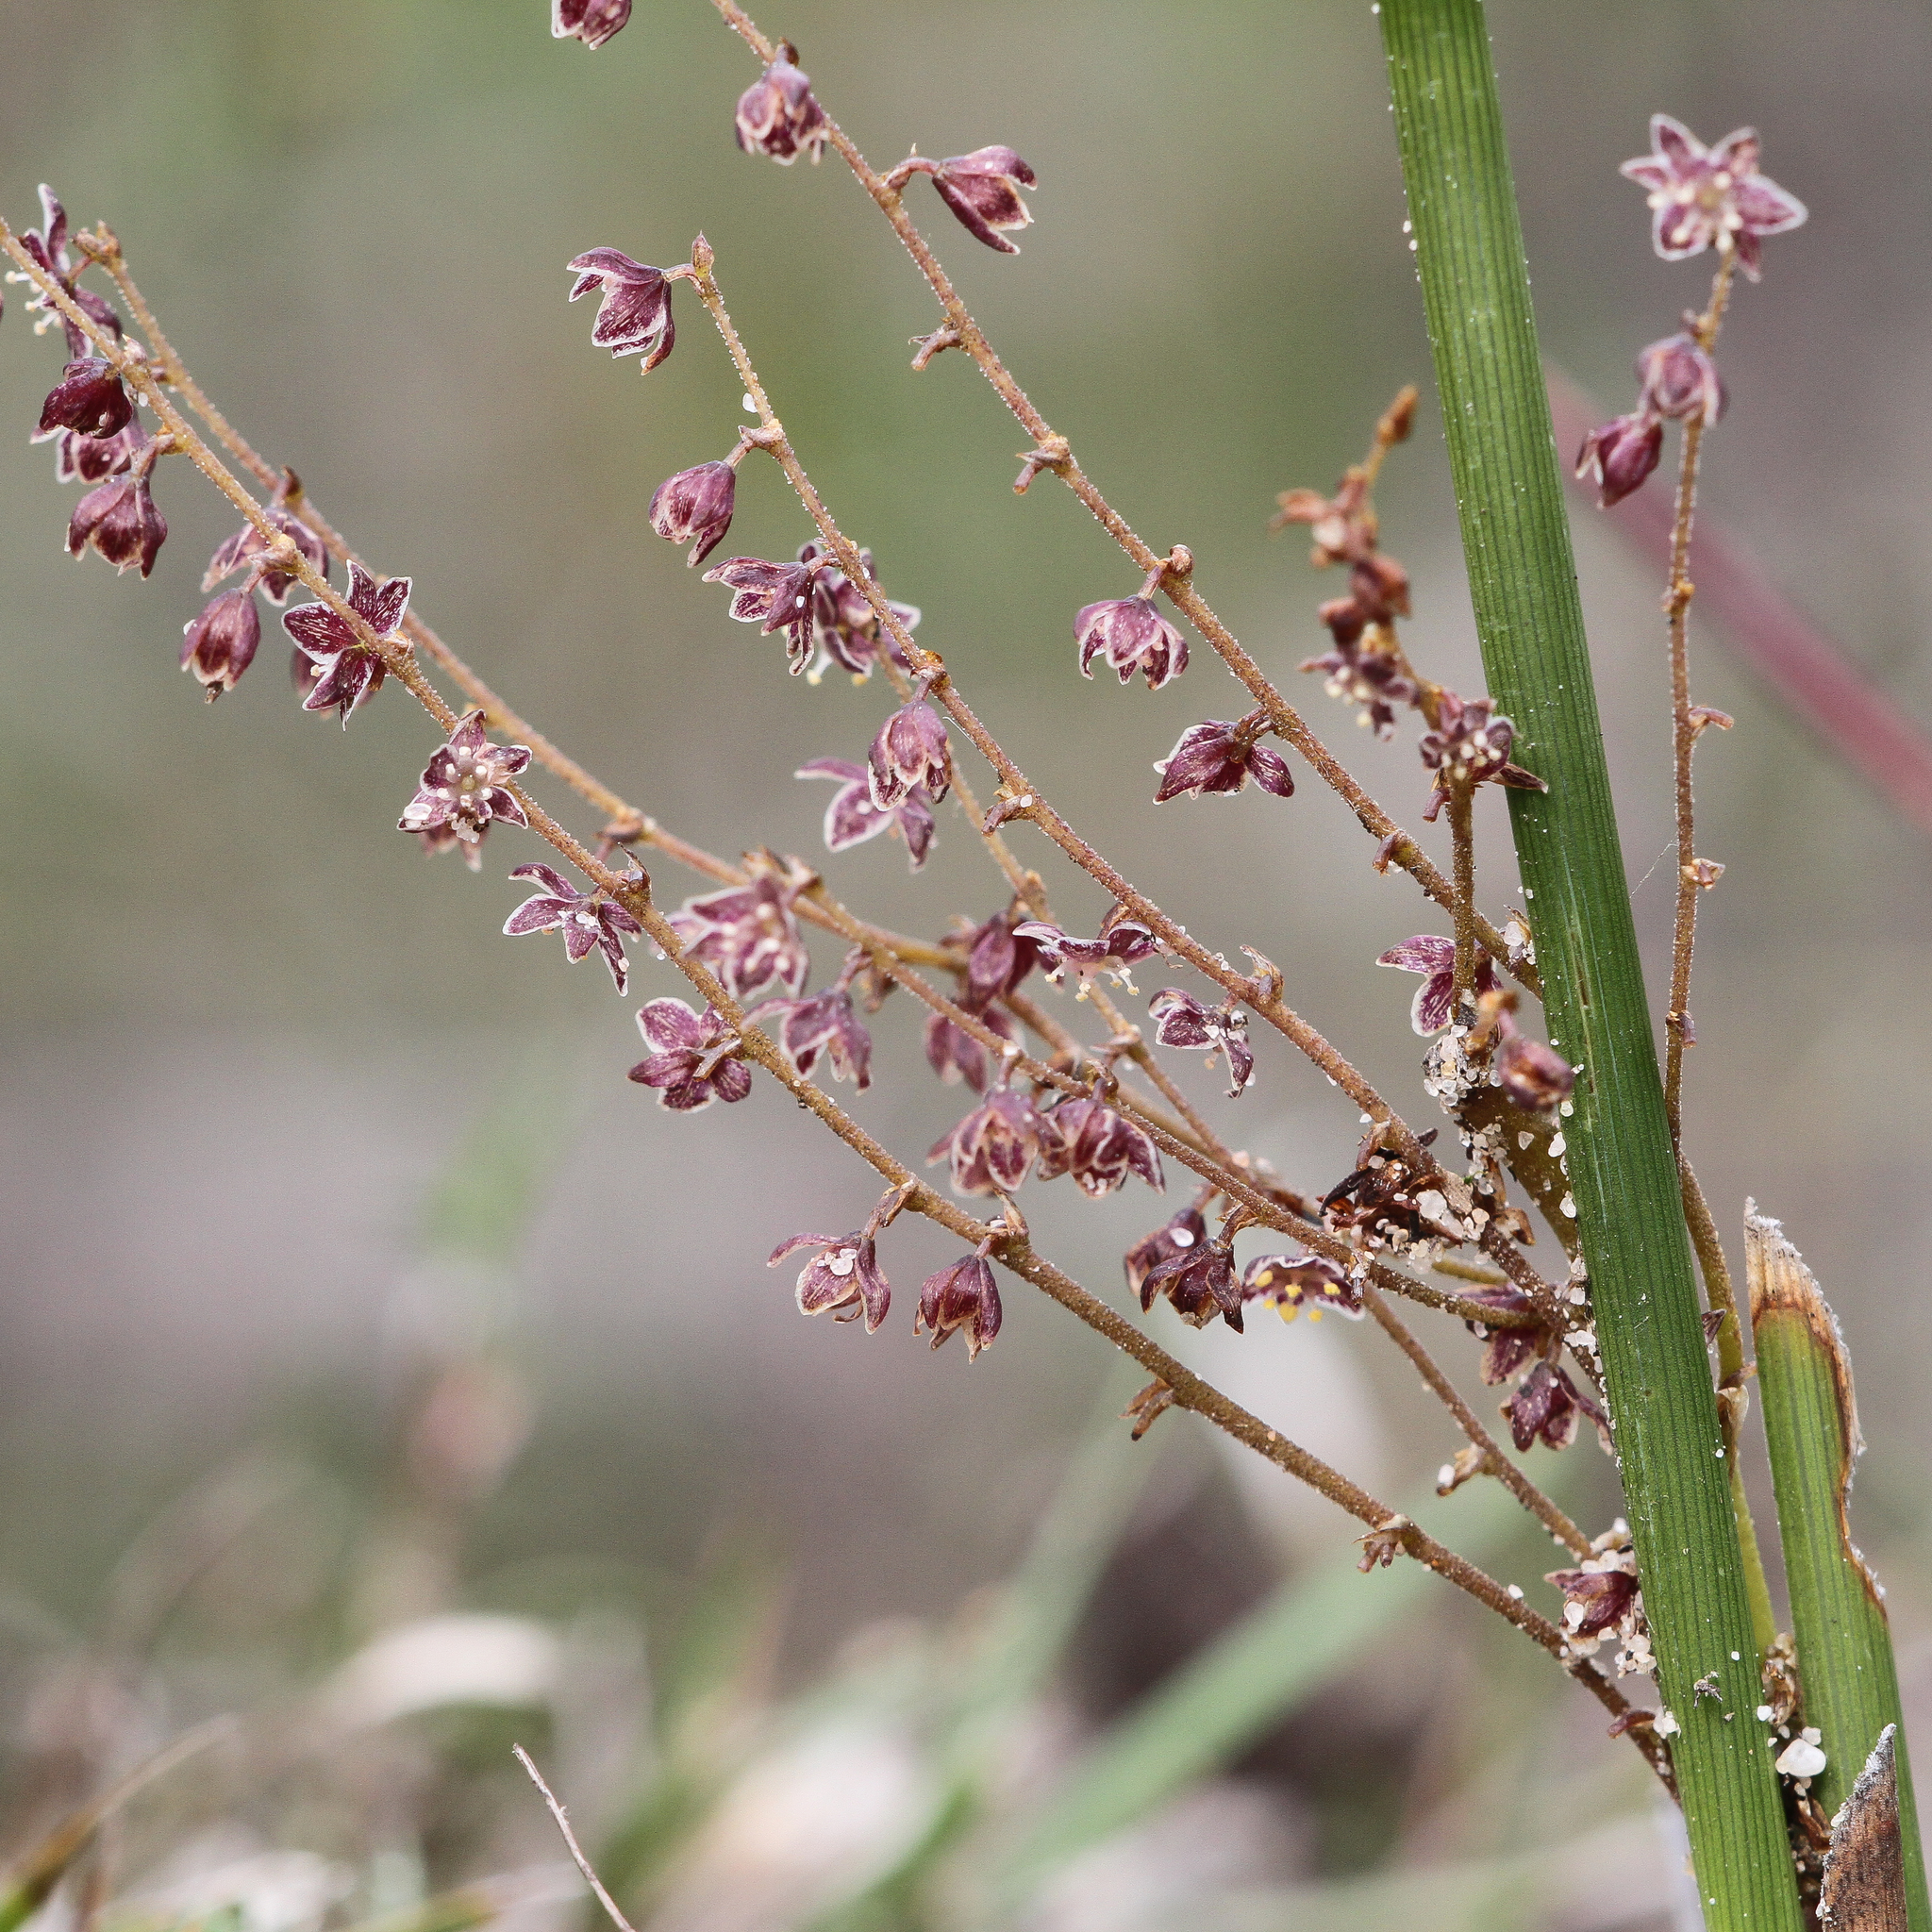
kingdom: Plantae
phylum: Tracheophyta
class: Liliopsida
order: Asparagales
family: Asparagaceae
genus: Lomandra
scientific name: Lomandra micrantha
